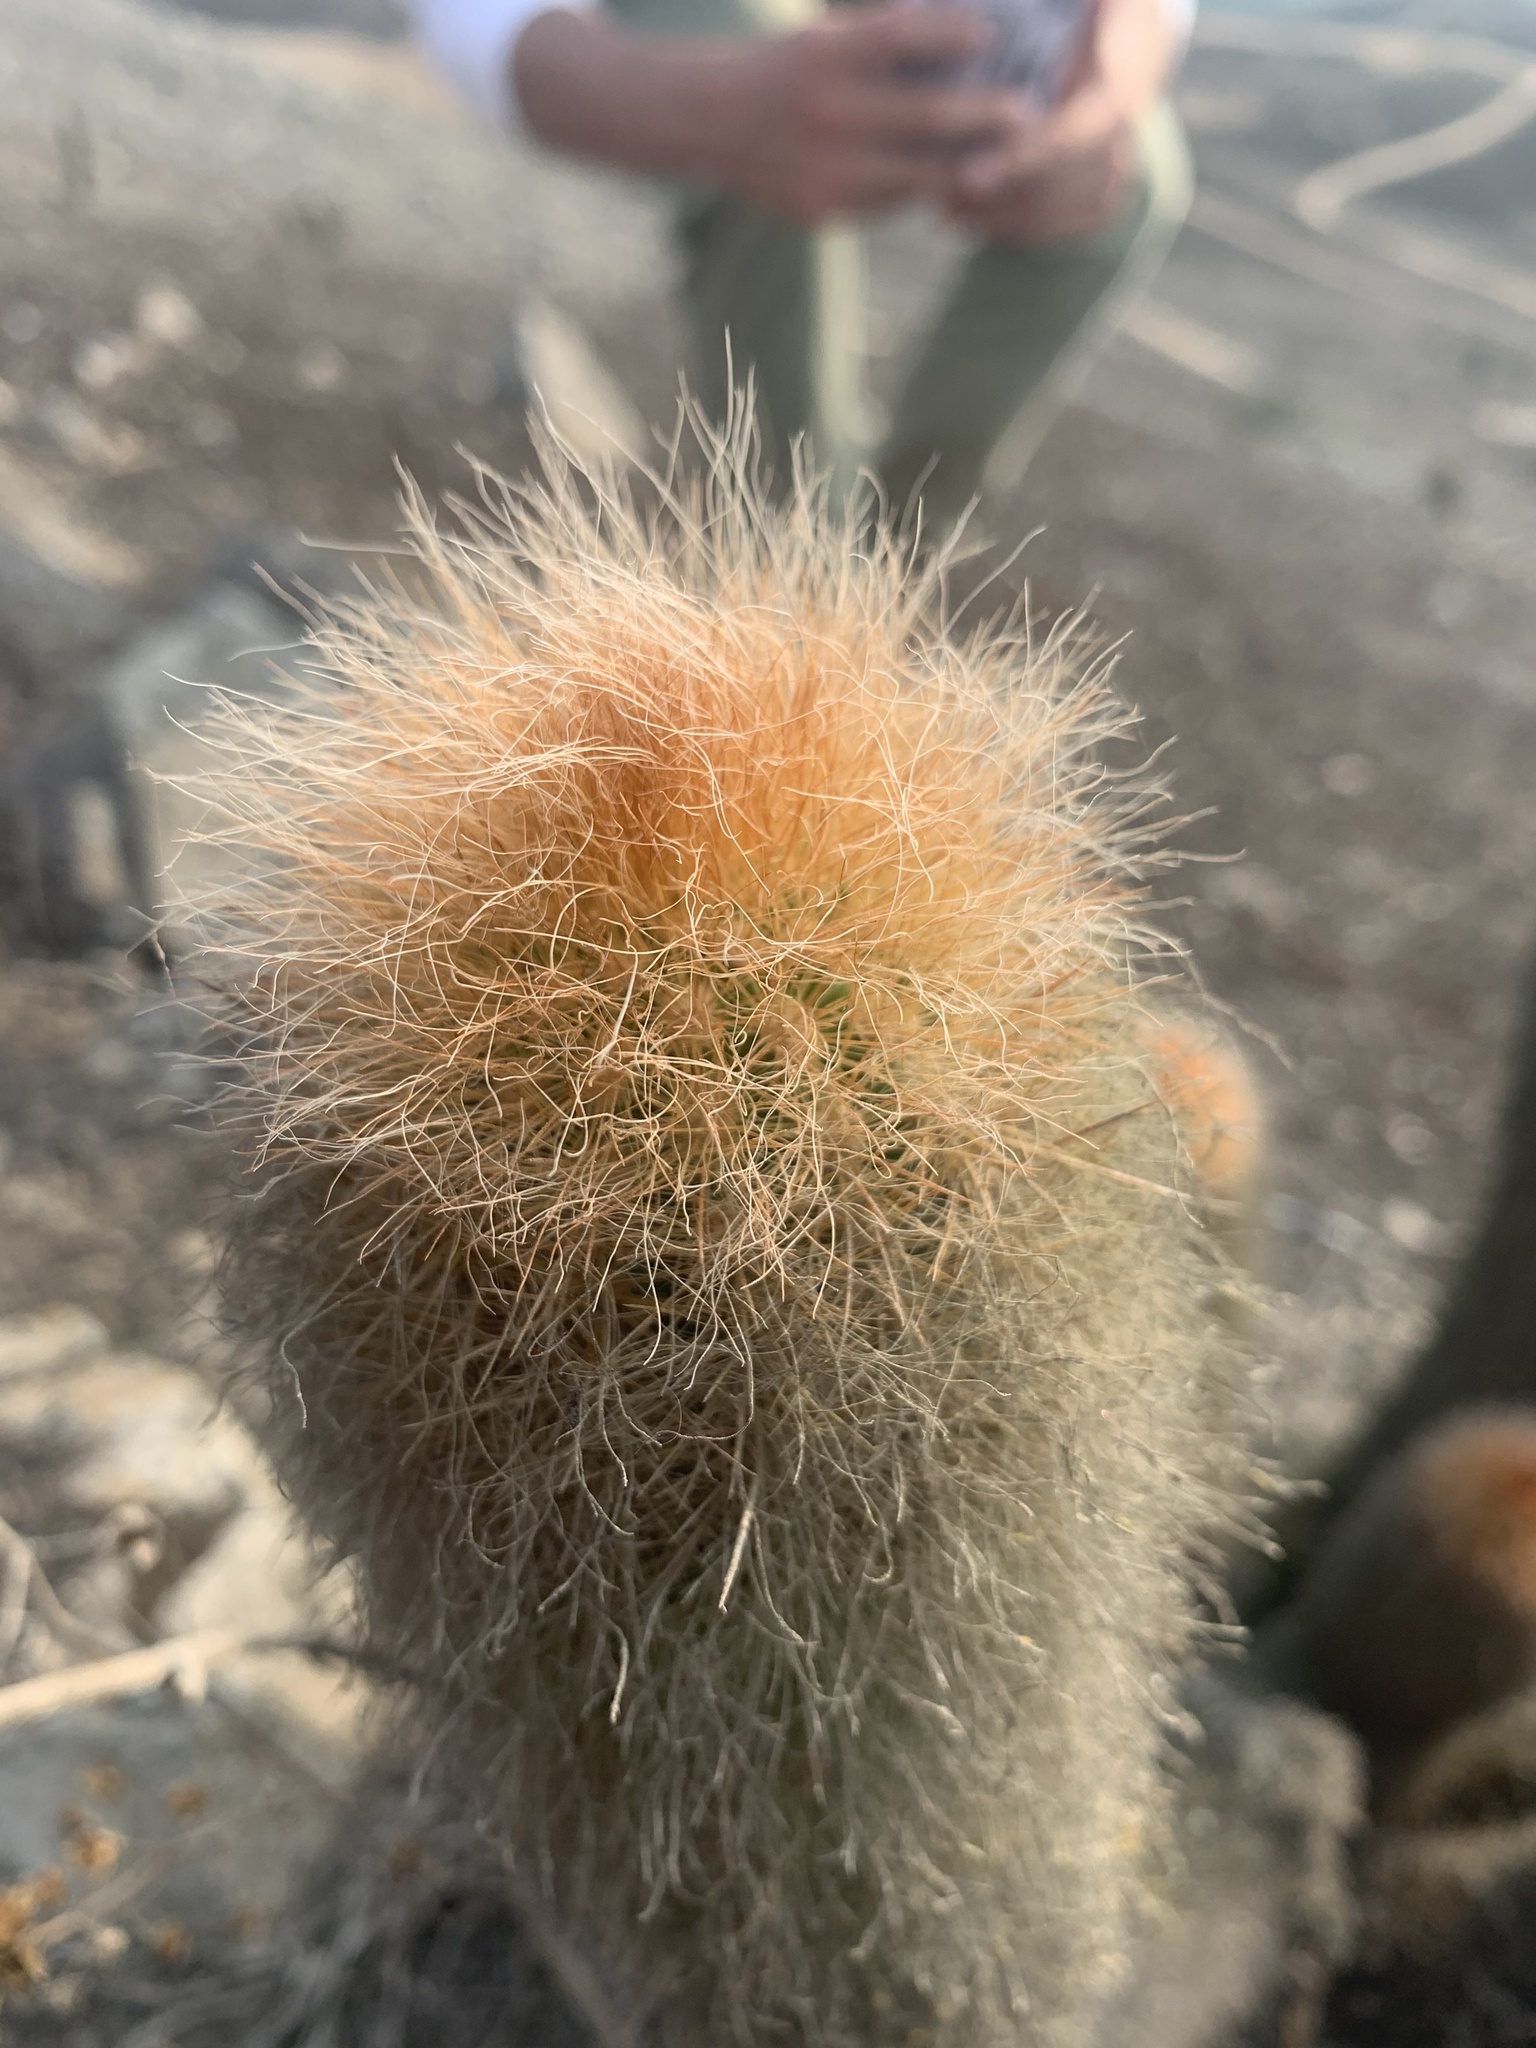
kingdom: Plantae
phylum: Tracheophyta
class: Magnoliopsida
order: Caryophyllales
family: Cactaceae
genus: Haageocereus
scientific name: Haageocereus pseudomelanostele
